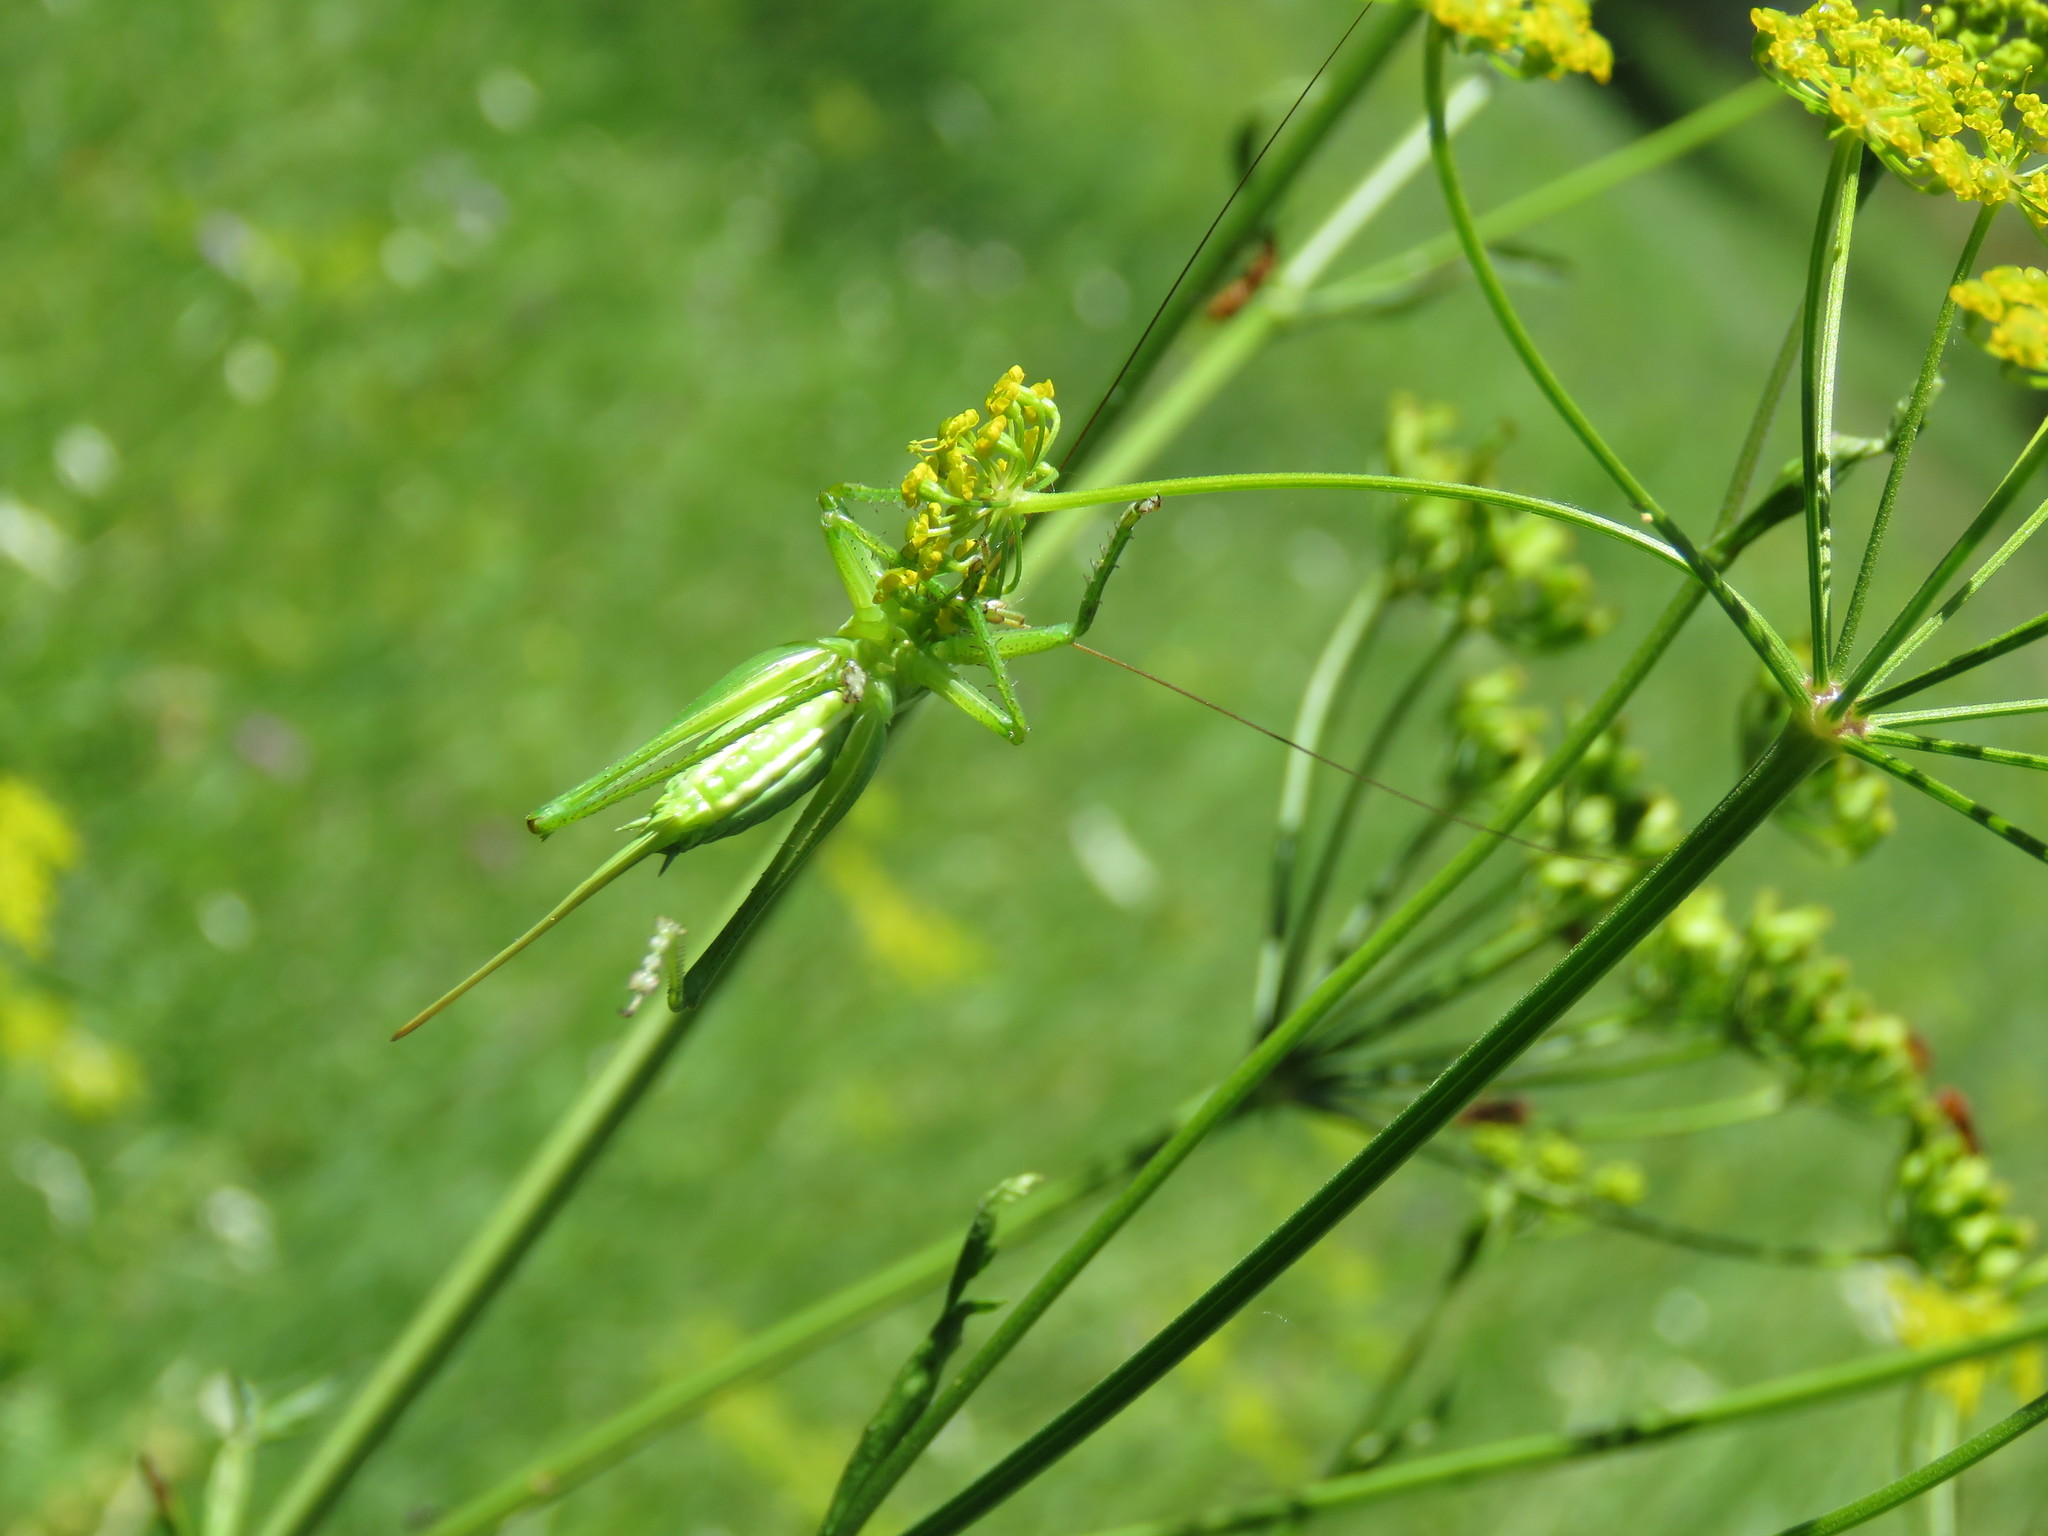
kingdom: Animalia
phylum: Arthropoda
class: Insecta
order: Orthoptera
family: Tettigoniidae
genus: Tettigonia
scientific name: Tettigonia viridissima
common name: Great green bush-cricket
